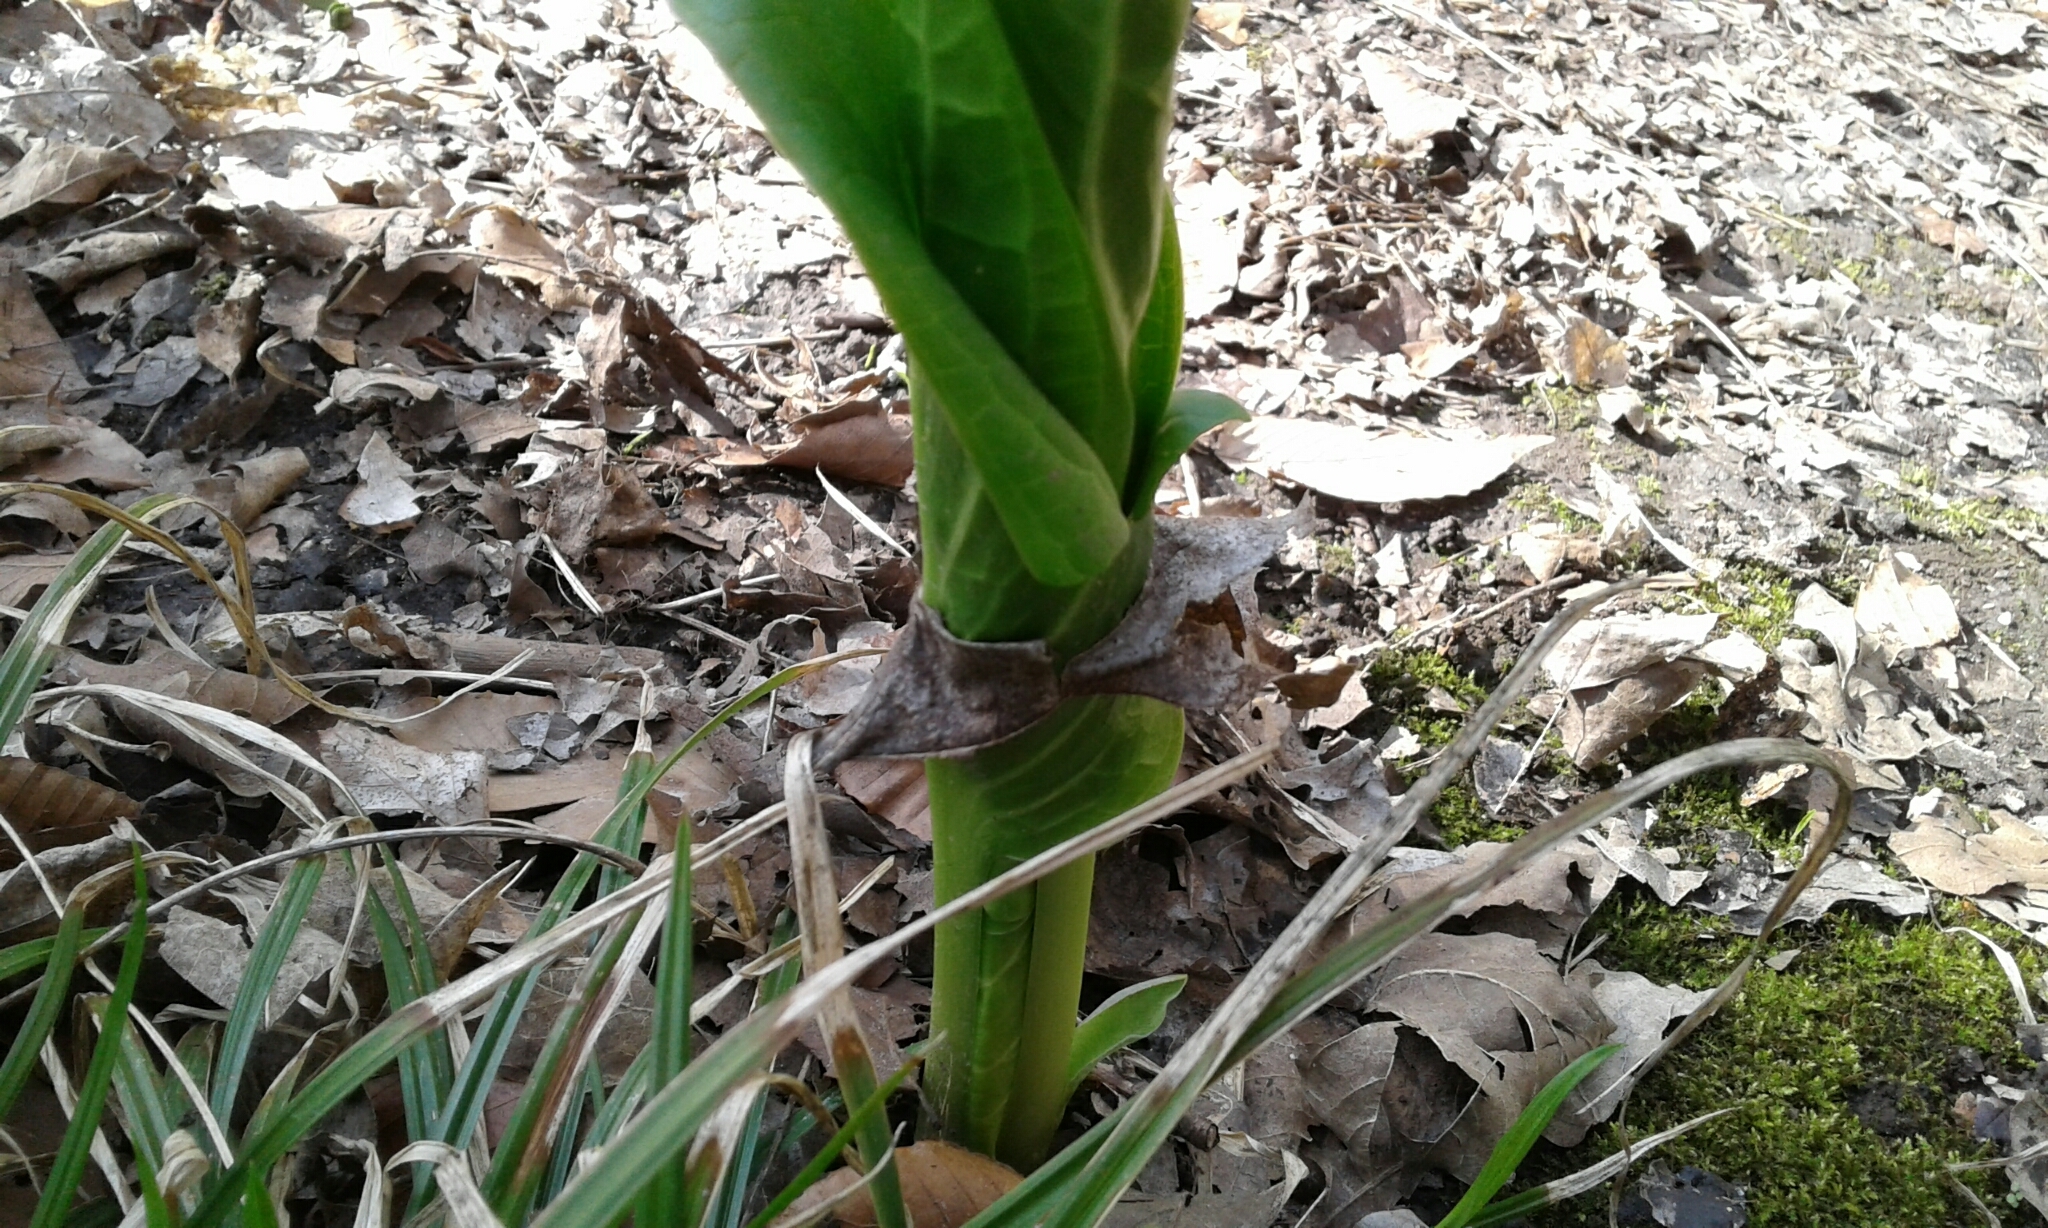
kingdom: Plantae
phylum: Tracheophyta
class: Liliopsida
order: Alismatales
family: Araceae
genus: Symplocarpus
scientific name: Symplocarpus foetidus
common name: Eastern skunk cabbage
